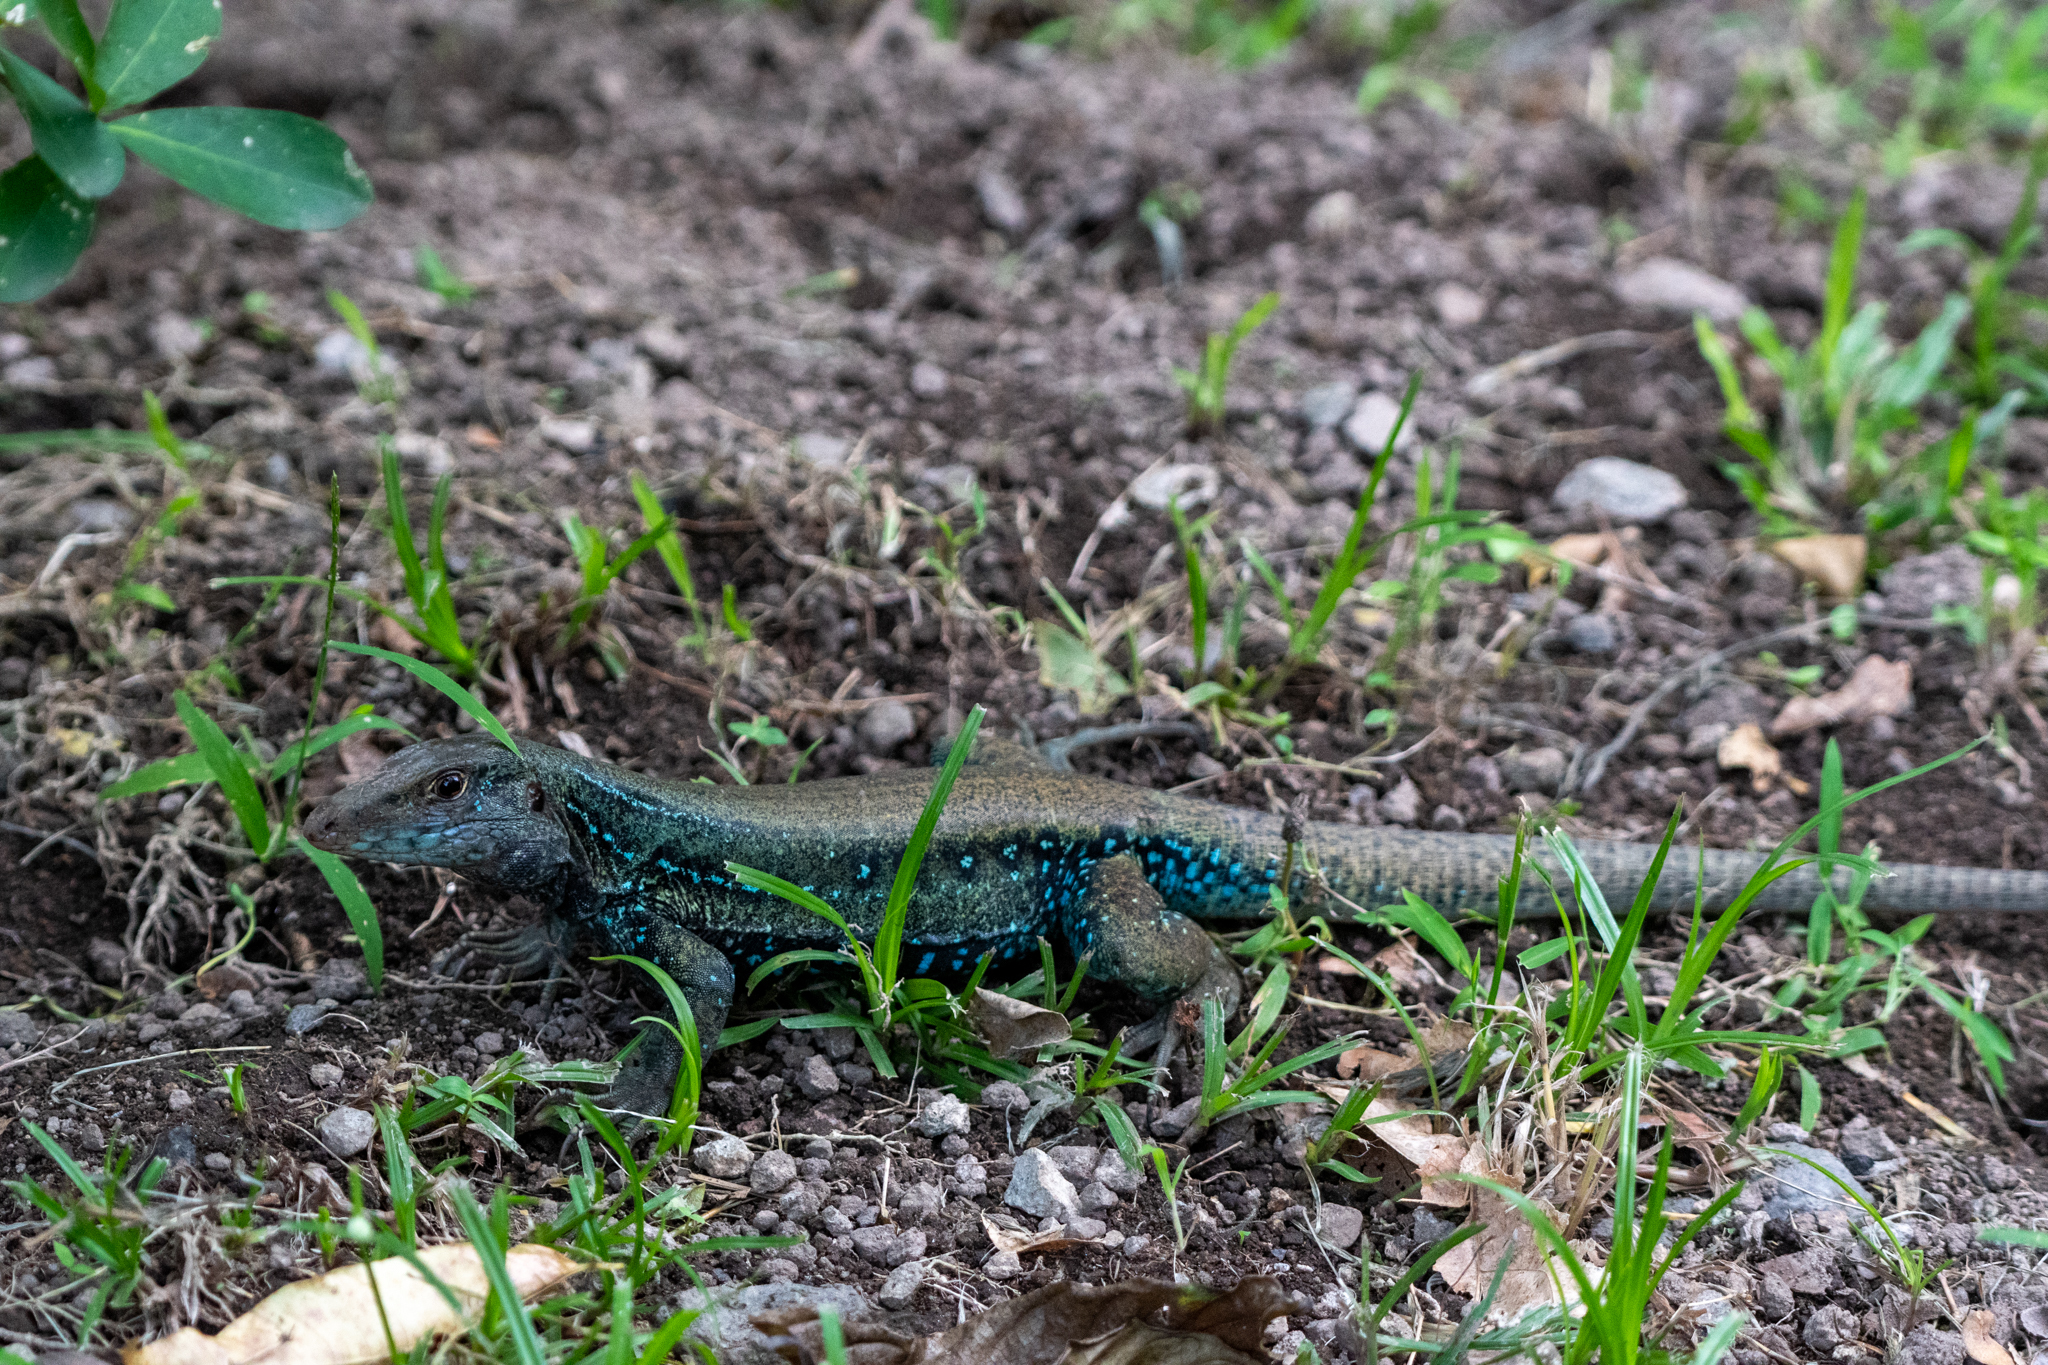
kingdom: Animalia
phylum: Chordata
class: Squamata
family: Teiidae
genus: Pholidoscelis
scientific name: Pholidoscelis fuscatus
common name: Dominican ameiva
